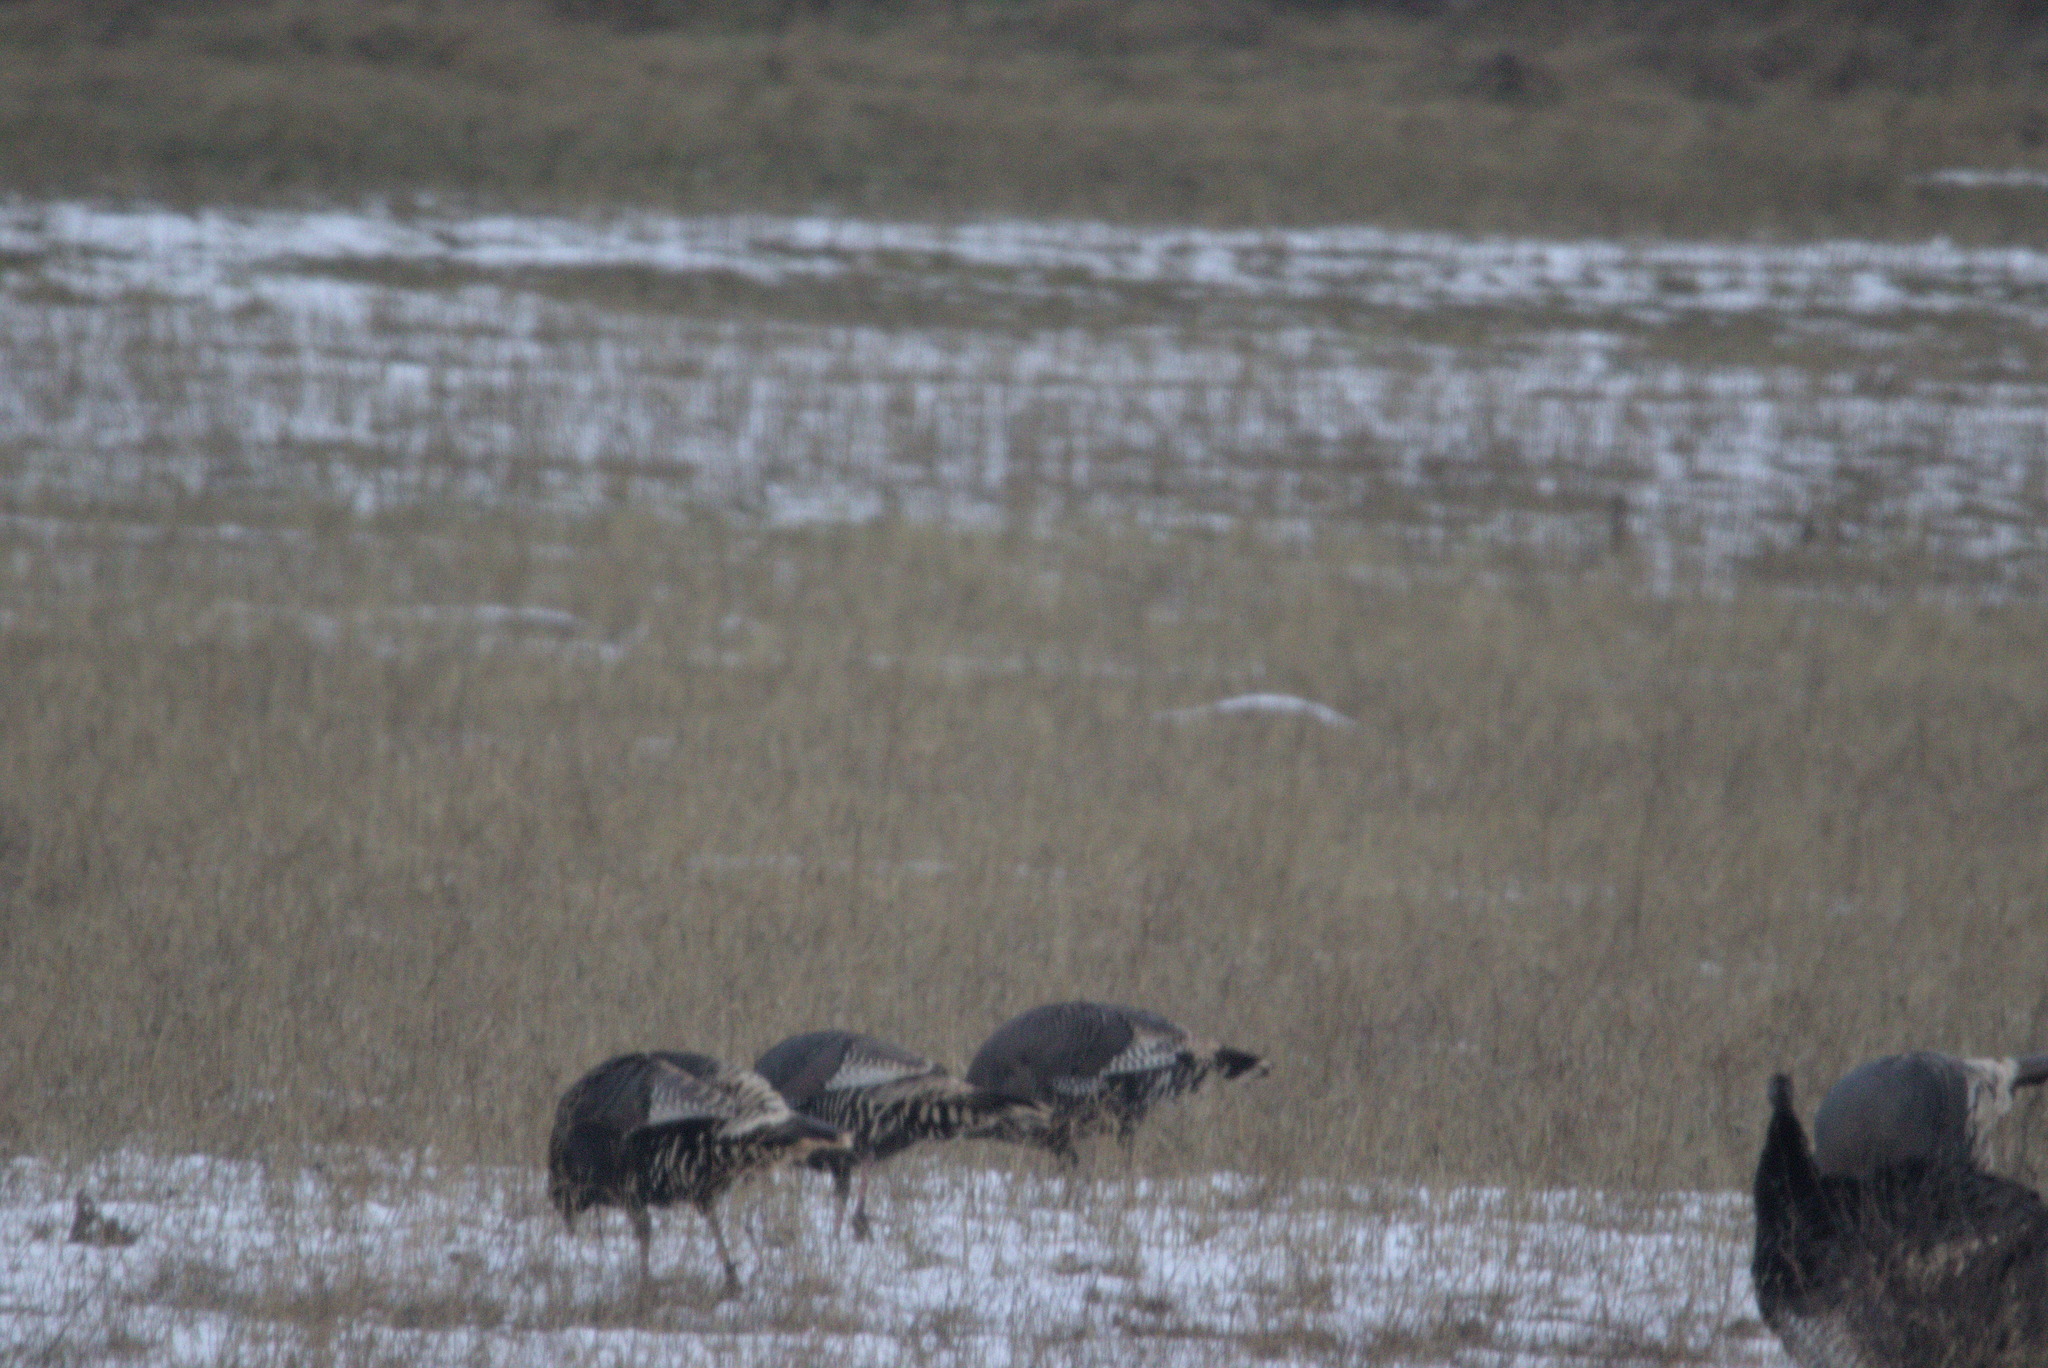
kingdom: Animalia
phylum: Chordata
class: Aves
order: Galliformes
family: Phasianidae
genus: Meleagris
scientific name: Meleagris gallopavo
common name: Wild turkey
